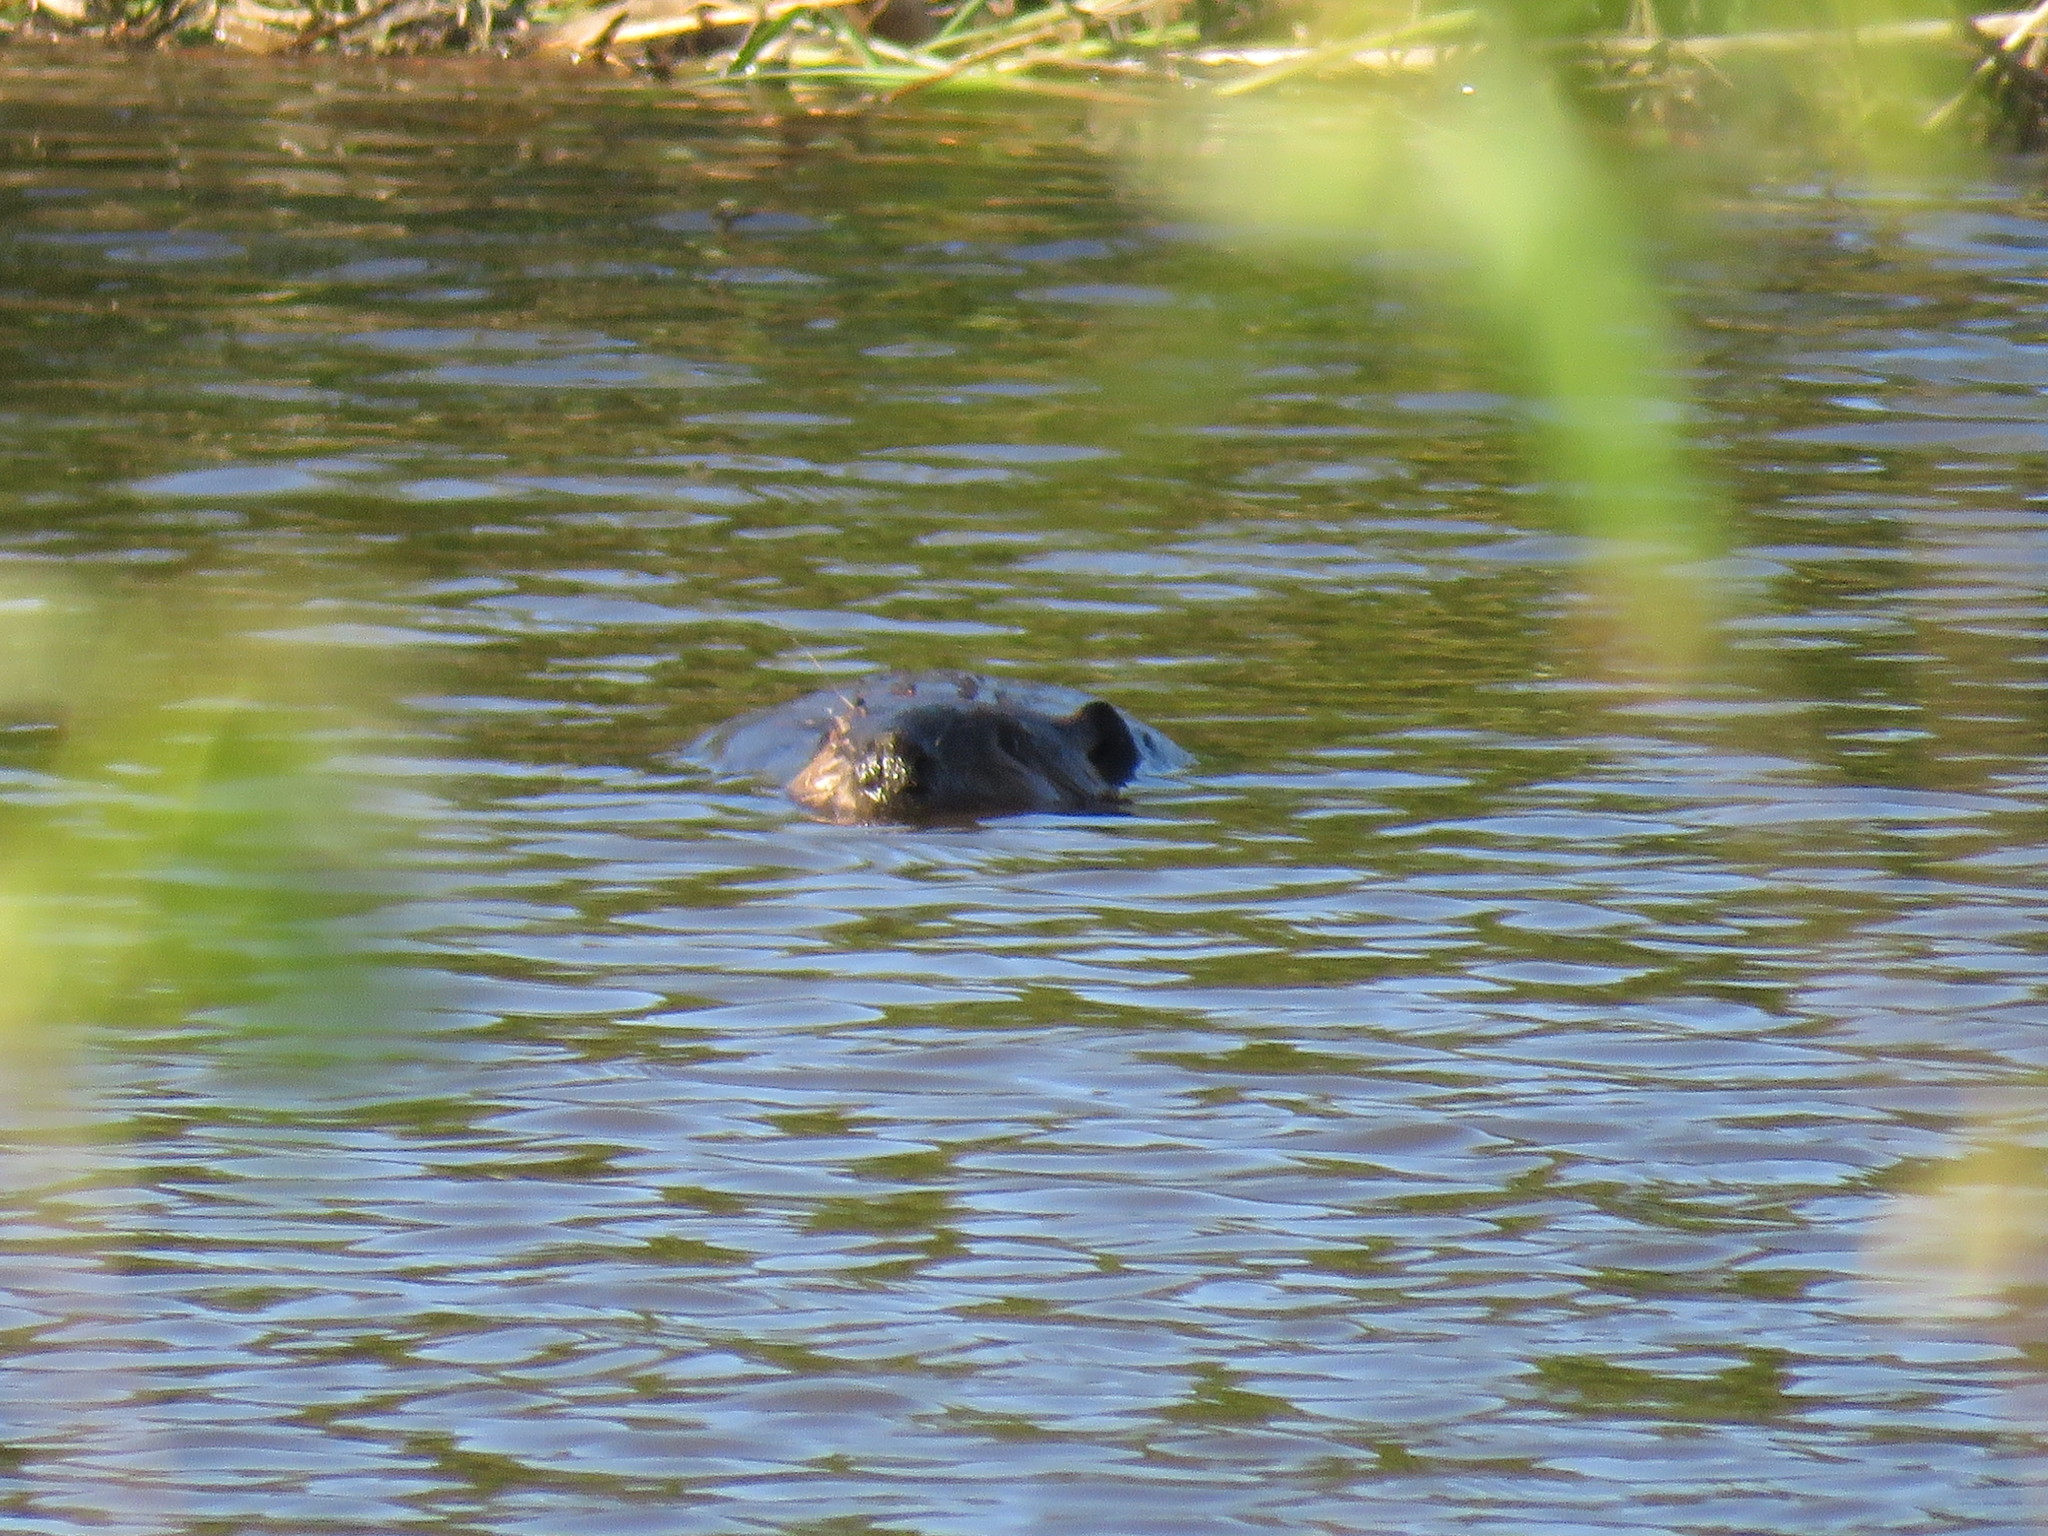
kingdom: Animalia
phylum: Chordata
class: Mammalia
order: Rodentia
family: Castoridae
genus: Castor
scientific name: Castor canadensis
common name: American beaver
